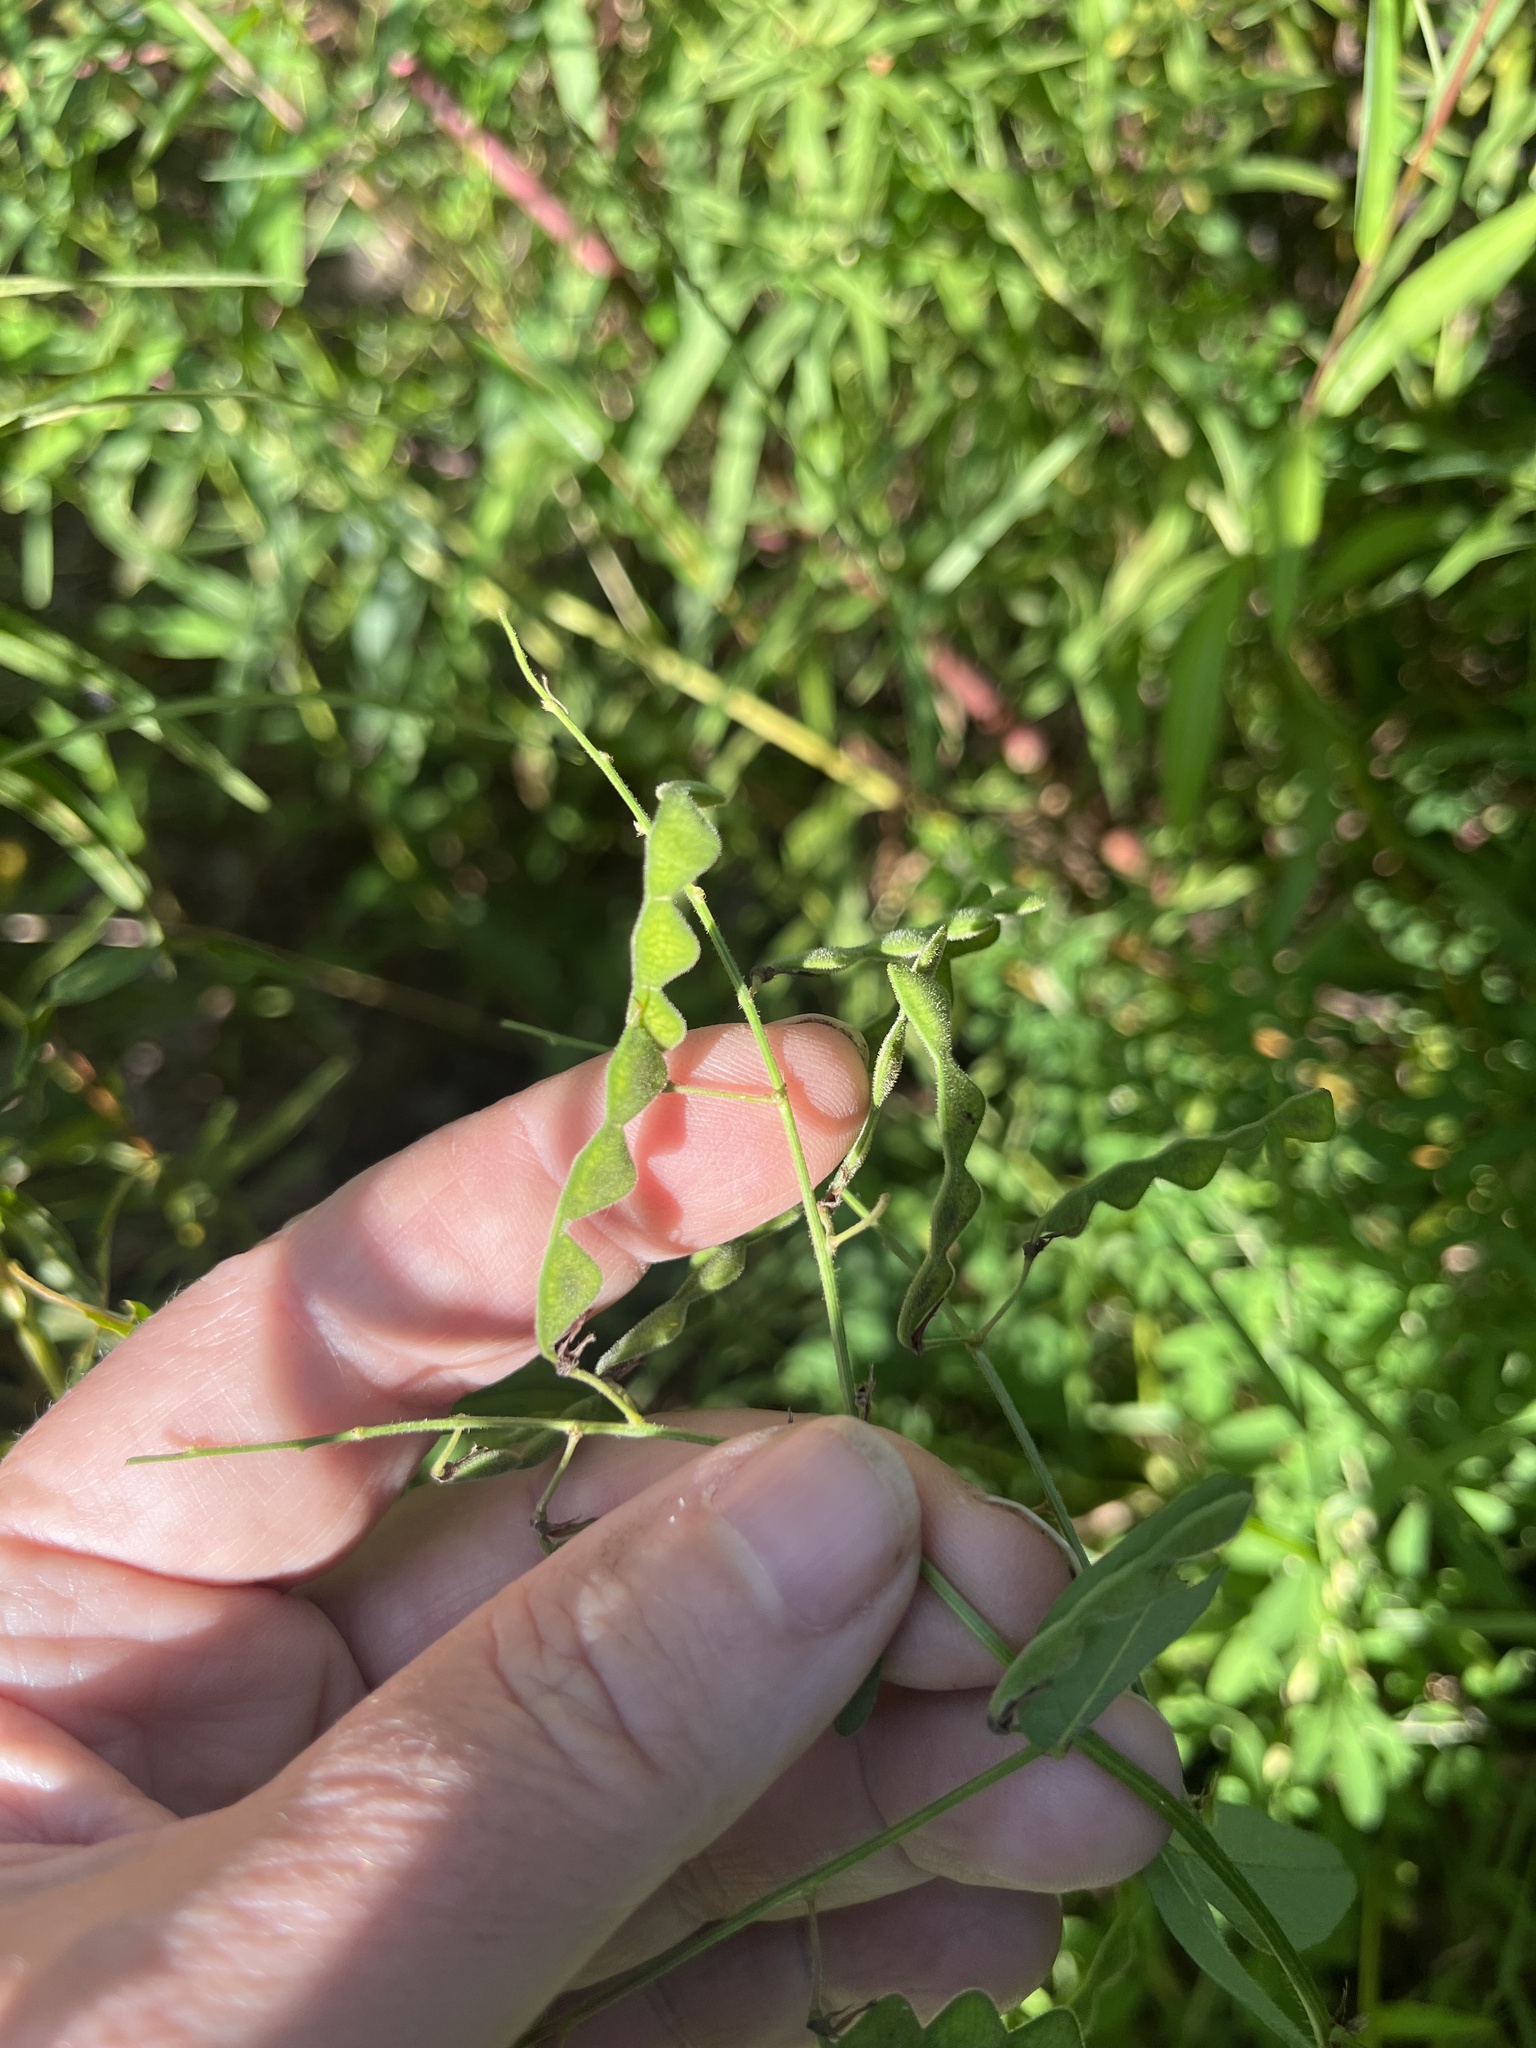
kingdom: Plantae
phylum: Tracheophyta
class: Magnoliopsida
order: Fabales
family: Fabaceae
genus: Desmodium
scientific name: Desmodium glabellum
